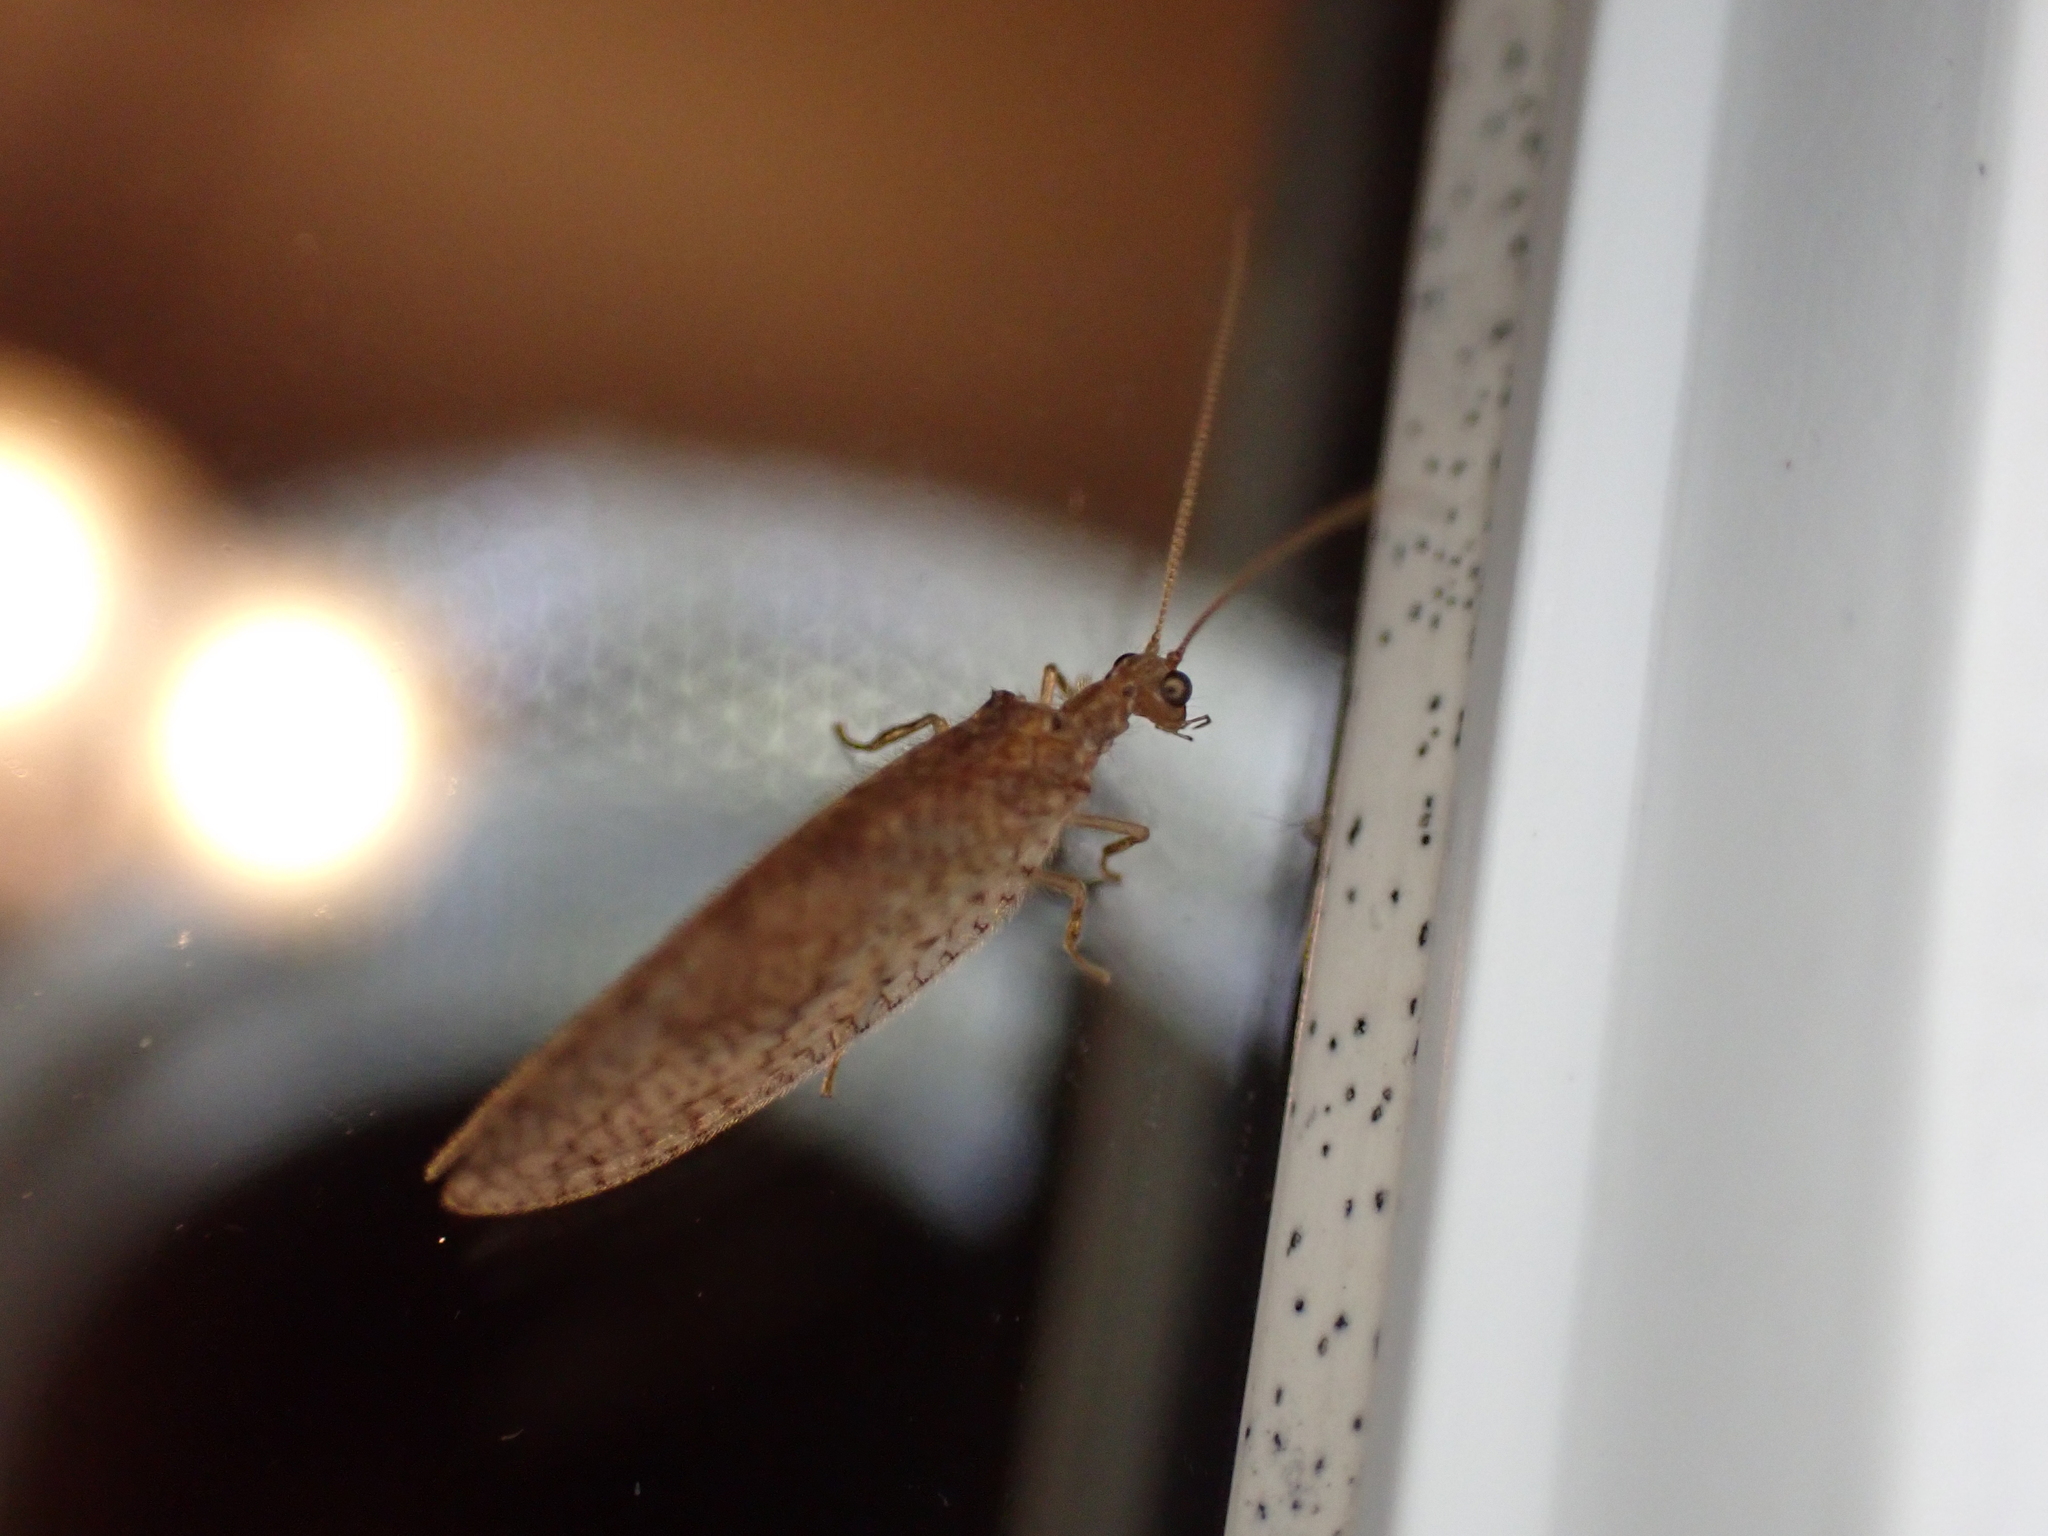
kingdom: Animalia
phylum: Arthropoda
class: Insecta
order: Neuroptera
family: Hemerobiidae
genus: Micromus
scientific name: Micromus posticus
